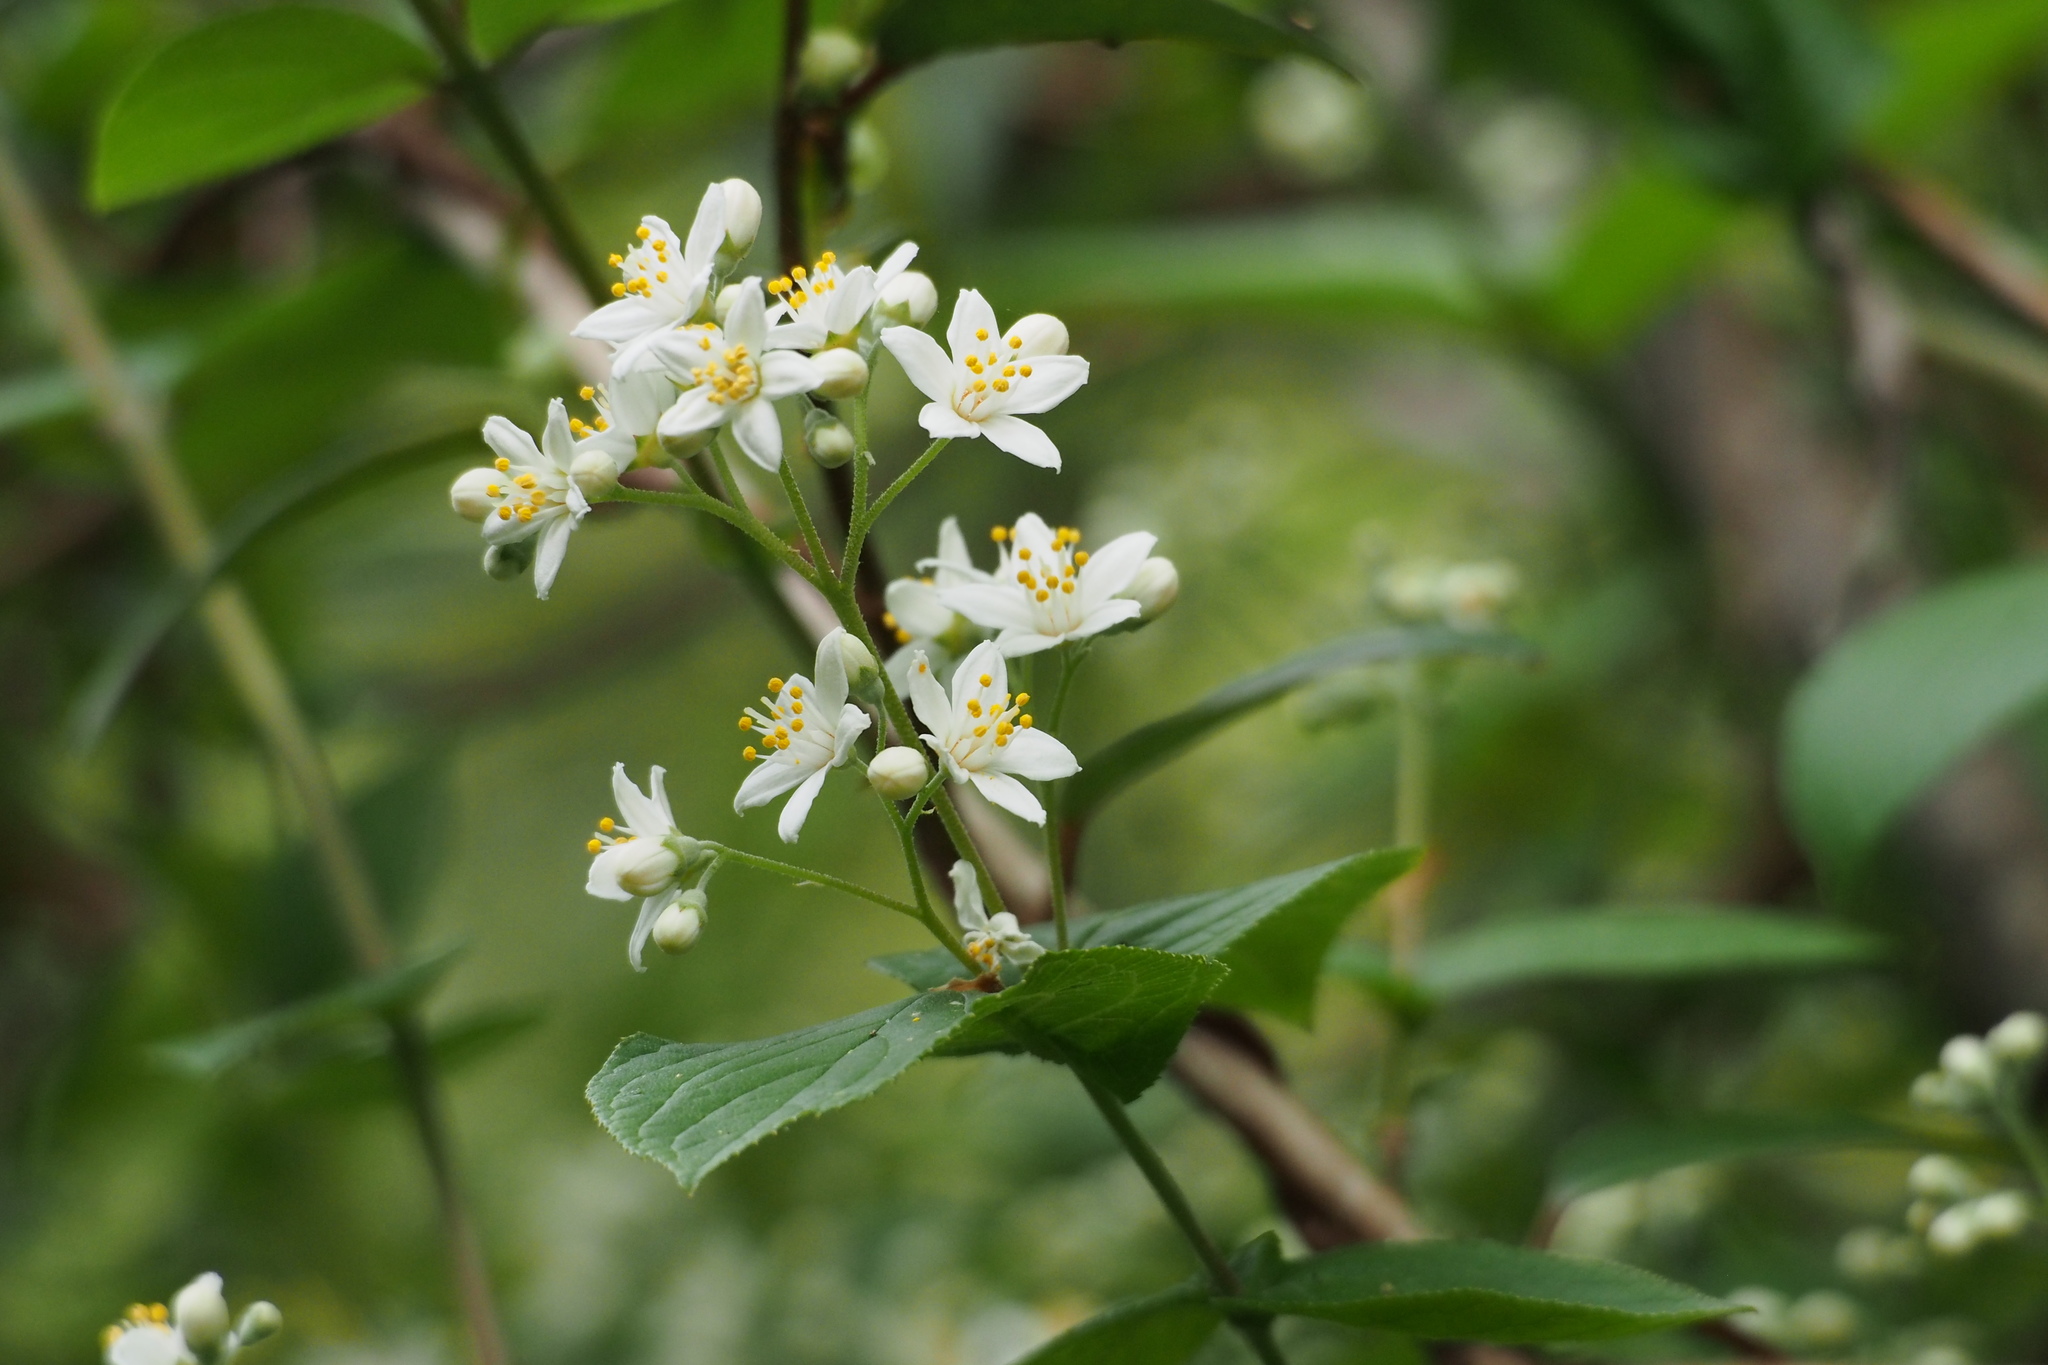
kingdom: Plantae
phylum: Tracheophyta
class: Magnoliopsida
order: Cornales
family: Hydrangeaceae
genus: Deutzia
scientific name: Deutzia scabra
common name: Deutzia
